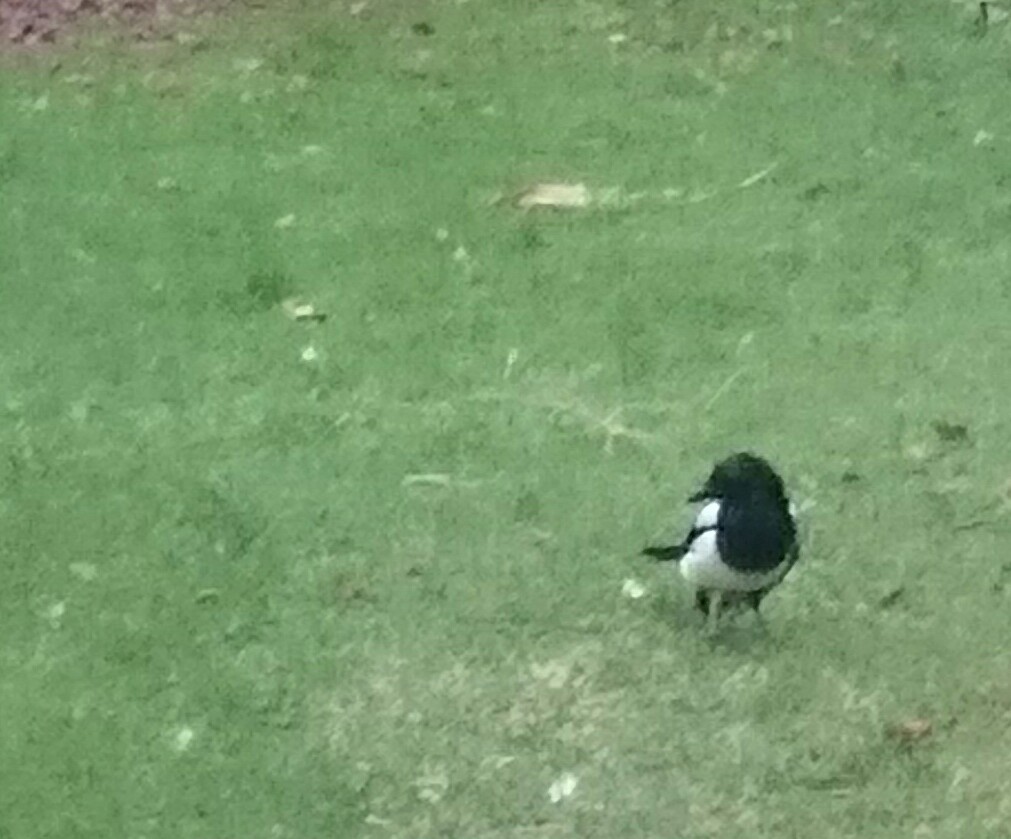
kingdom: Animalia
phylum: Chordata
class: Aves
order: Passeriformes
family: Corvidae
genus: Pica
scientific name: Pica pica
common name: Eurasian magpie
